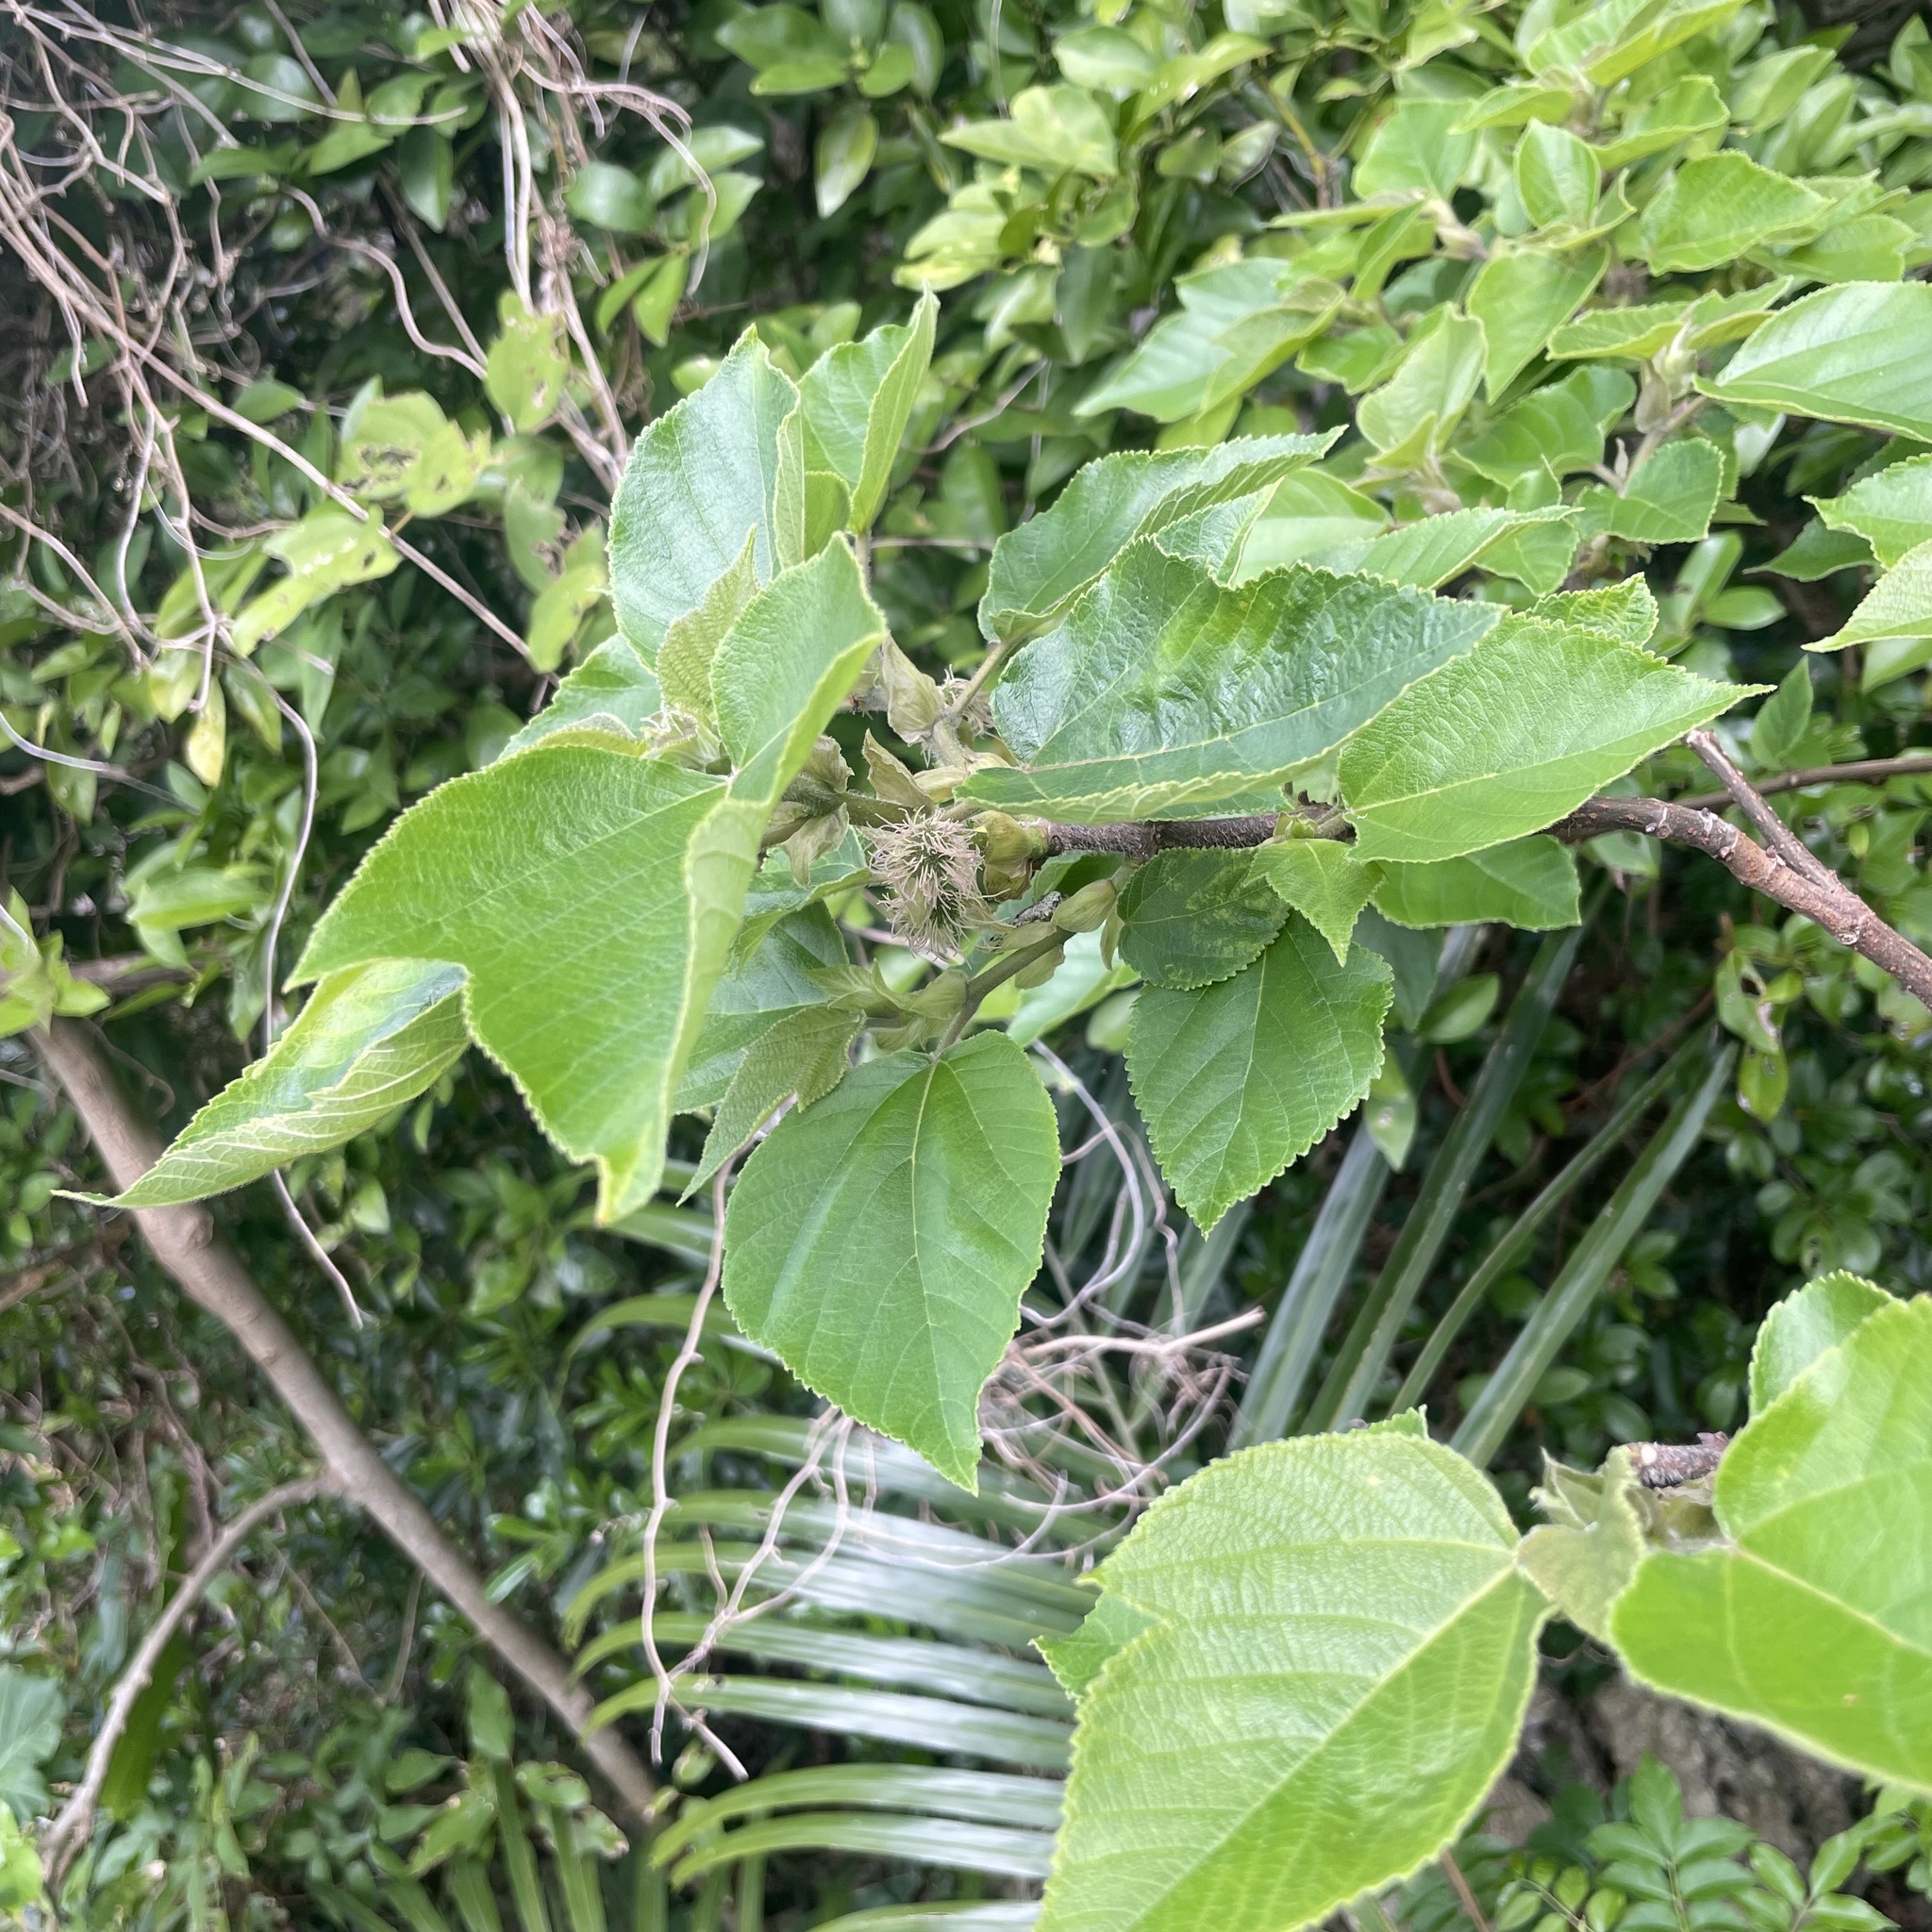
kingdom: Plantae
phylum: Tracheophyta
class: Magnoliopsida
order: Rosales
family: Moraceae
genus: Broussonetia
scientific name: Broussonetia papyrifera
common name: Paper mulberry
